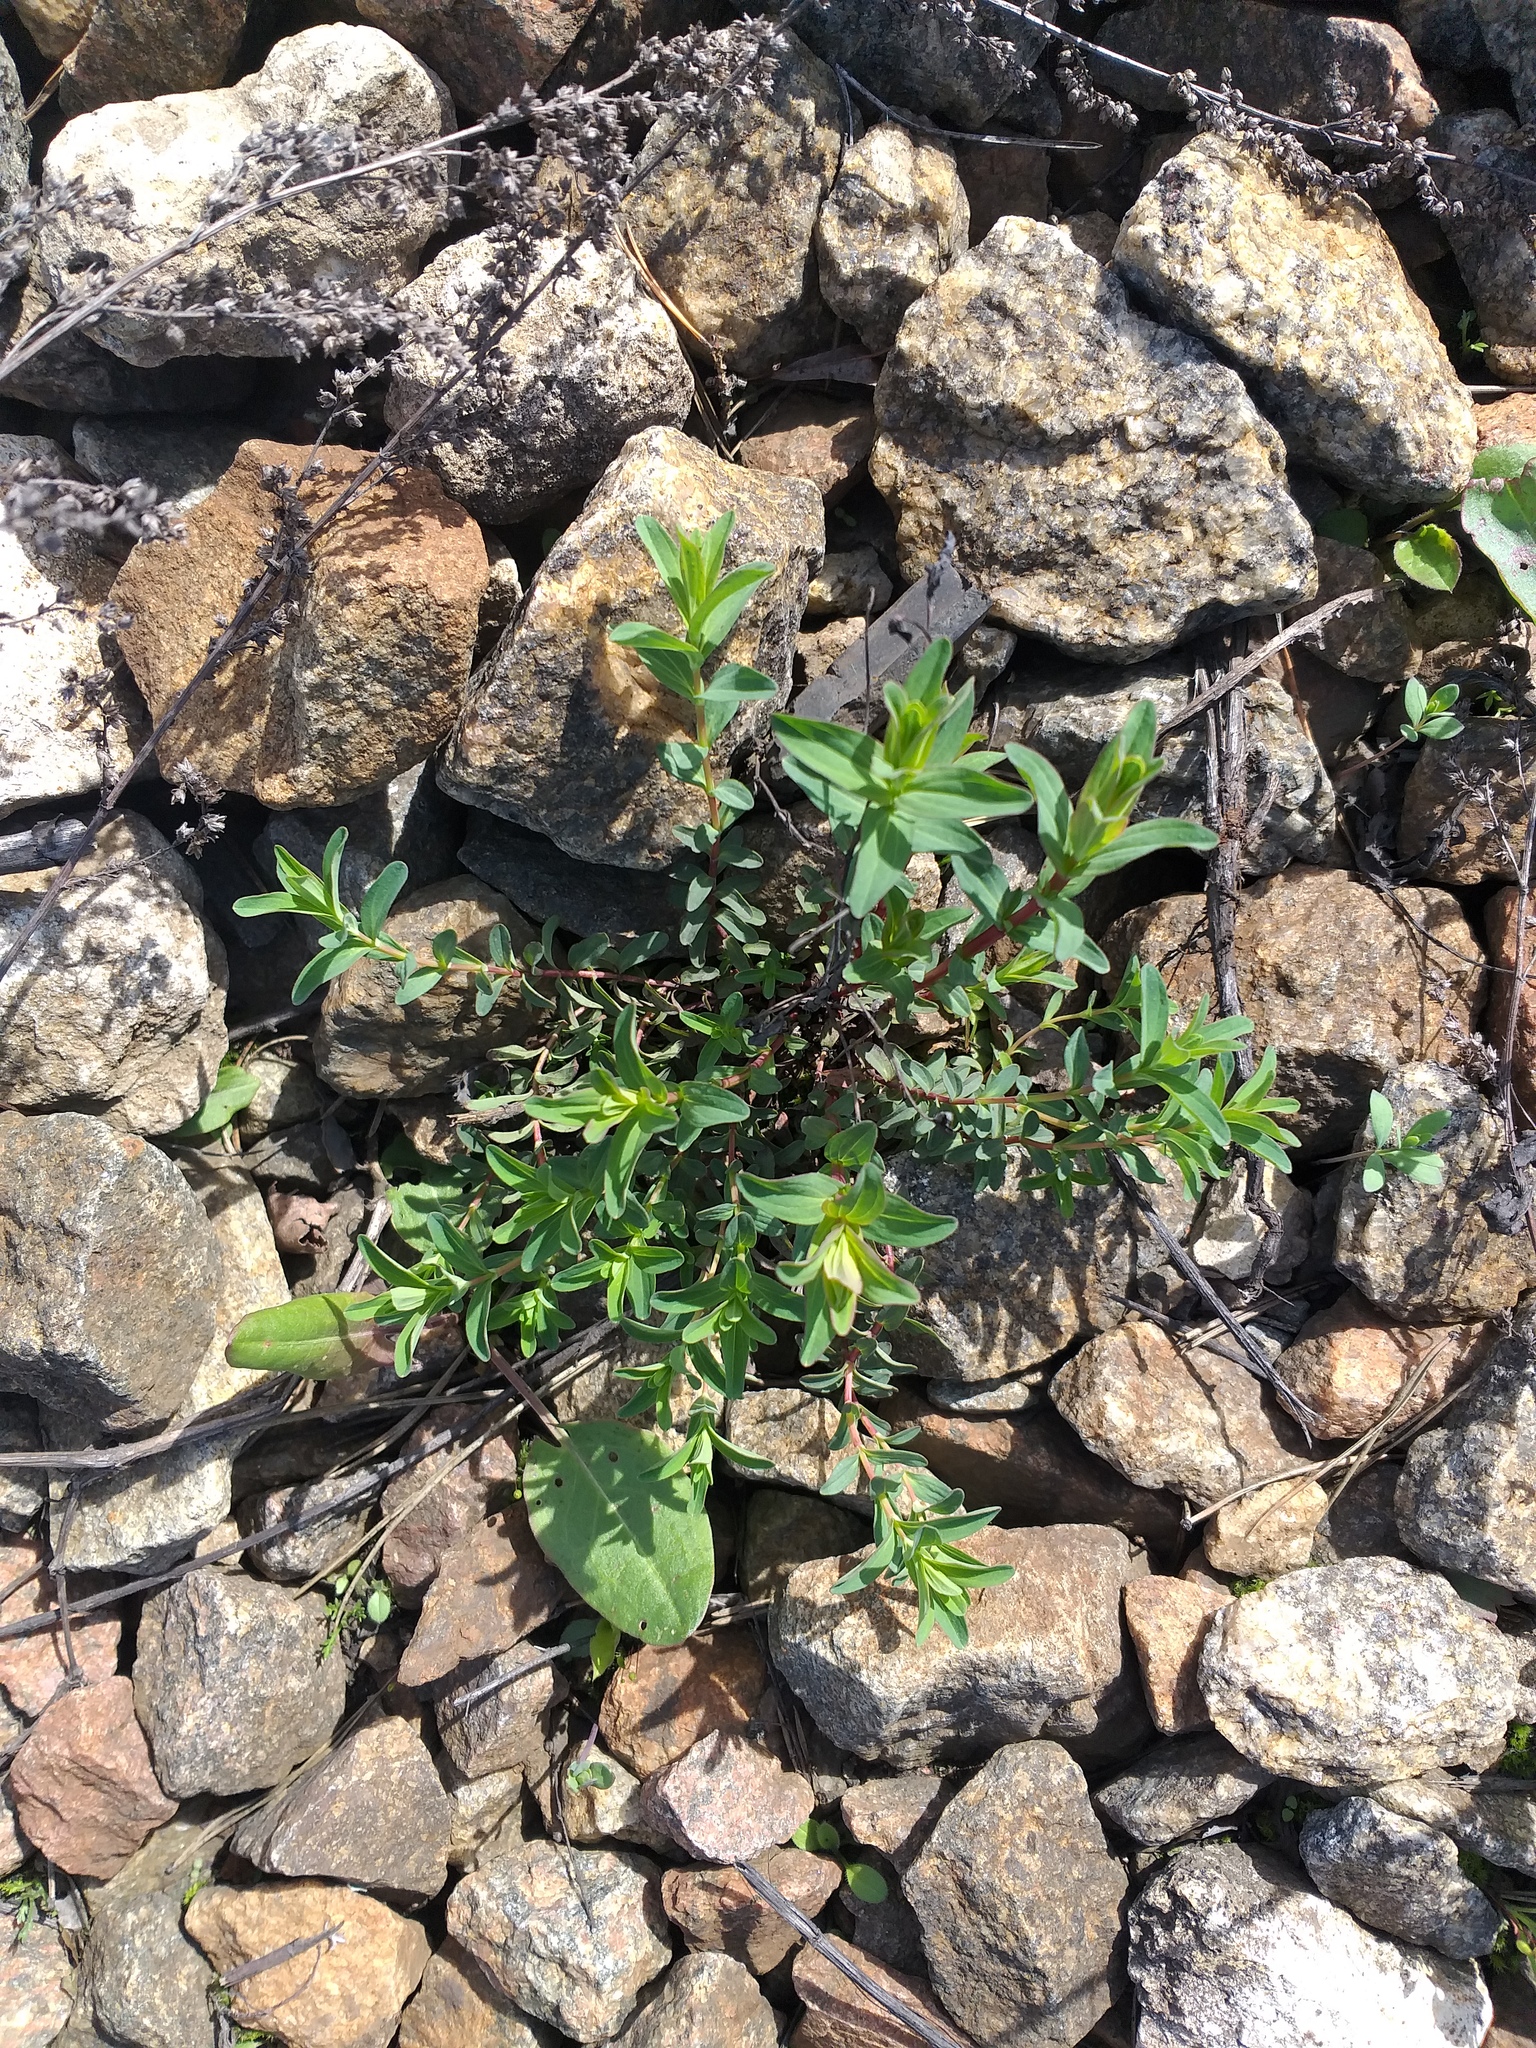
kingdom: Plantae
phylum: Tracheophyta
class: Magnoliopsida
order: Malpighiales
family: Hypericaceae
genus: Hypericum
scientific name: Hypericum perforatum
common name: Common st. johnswort
